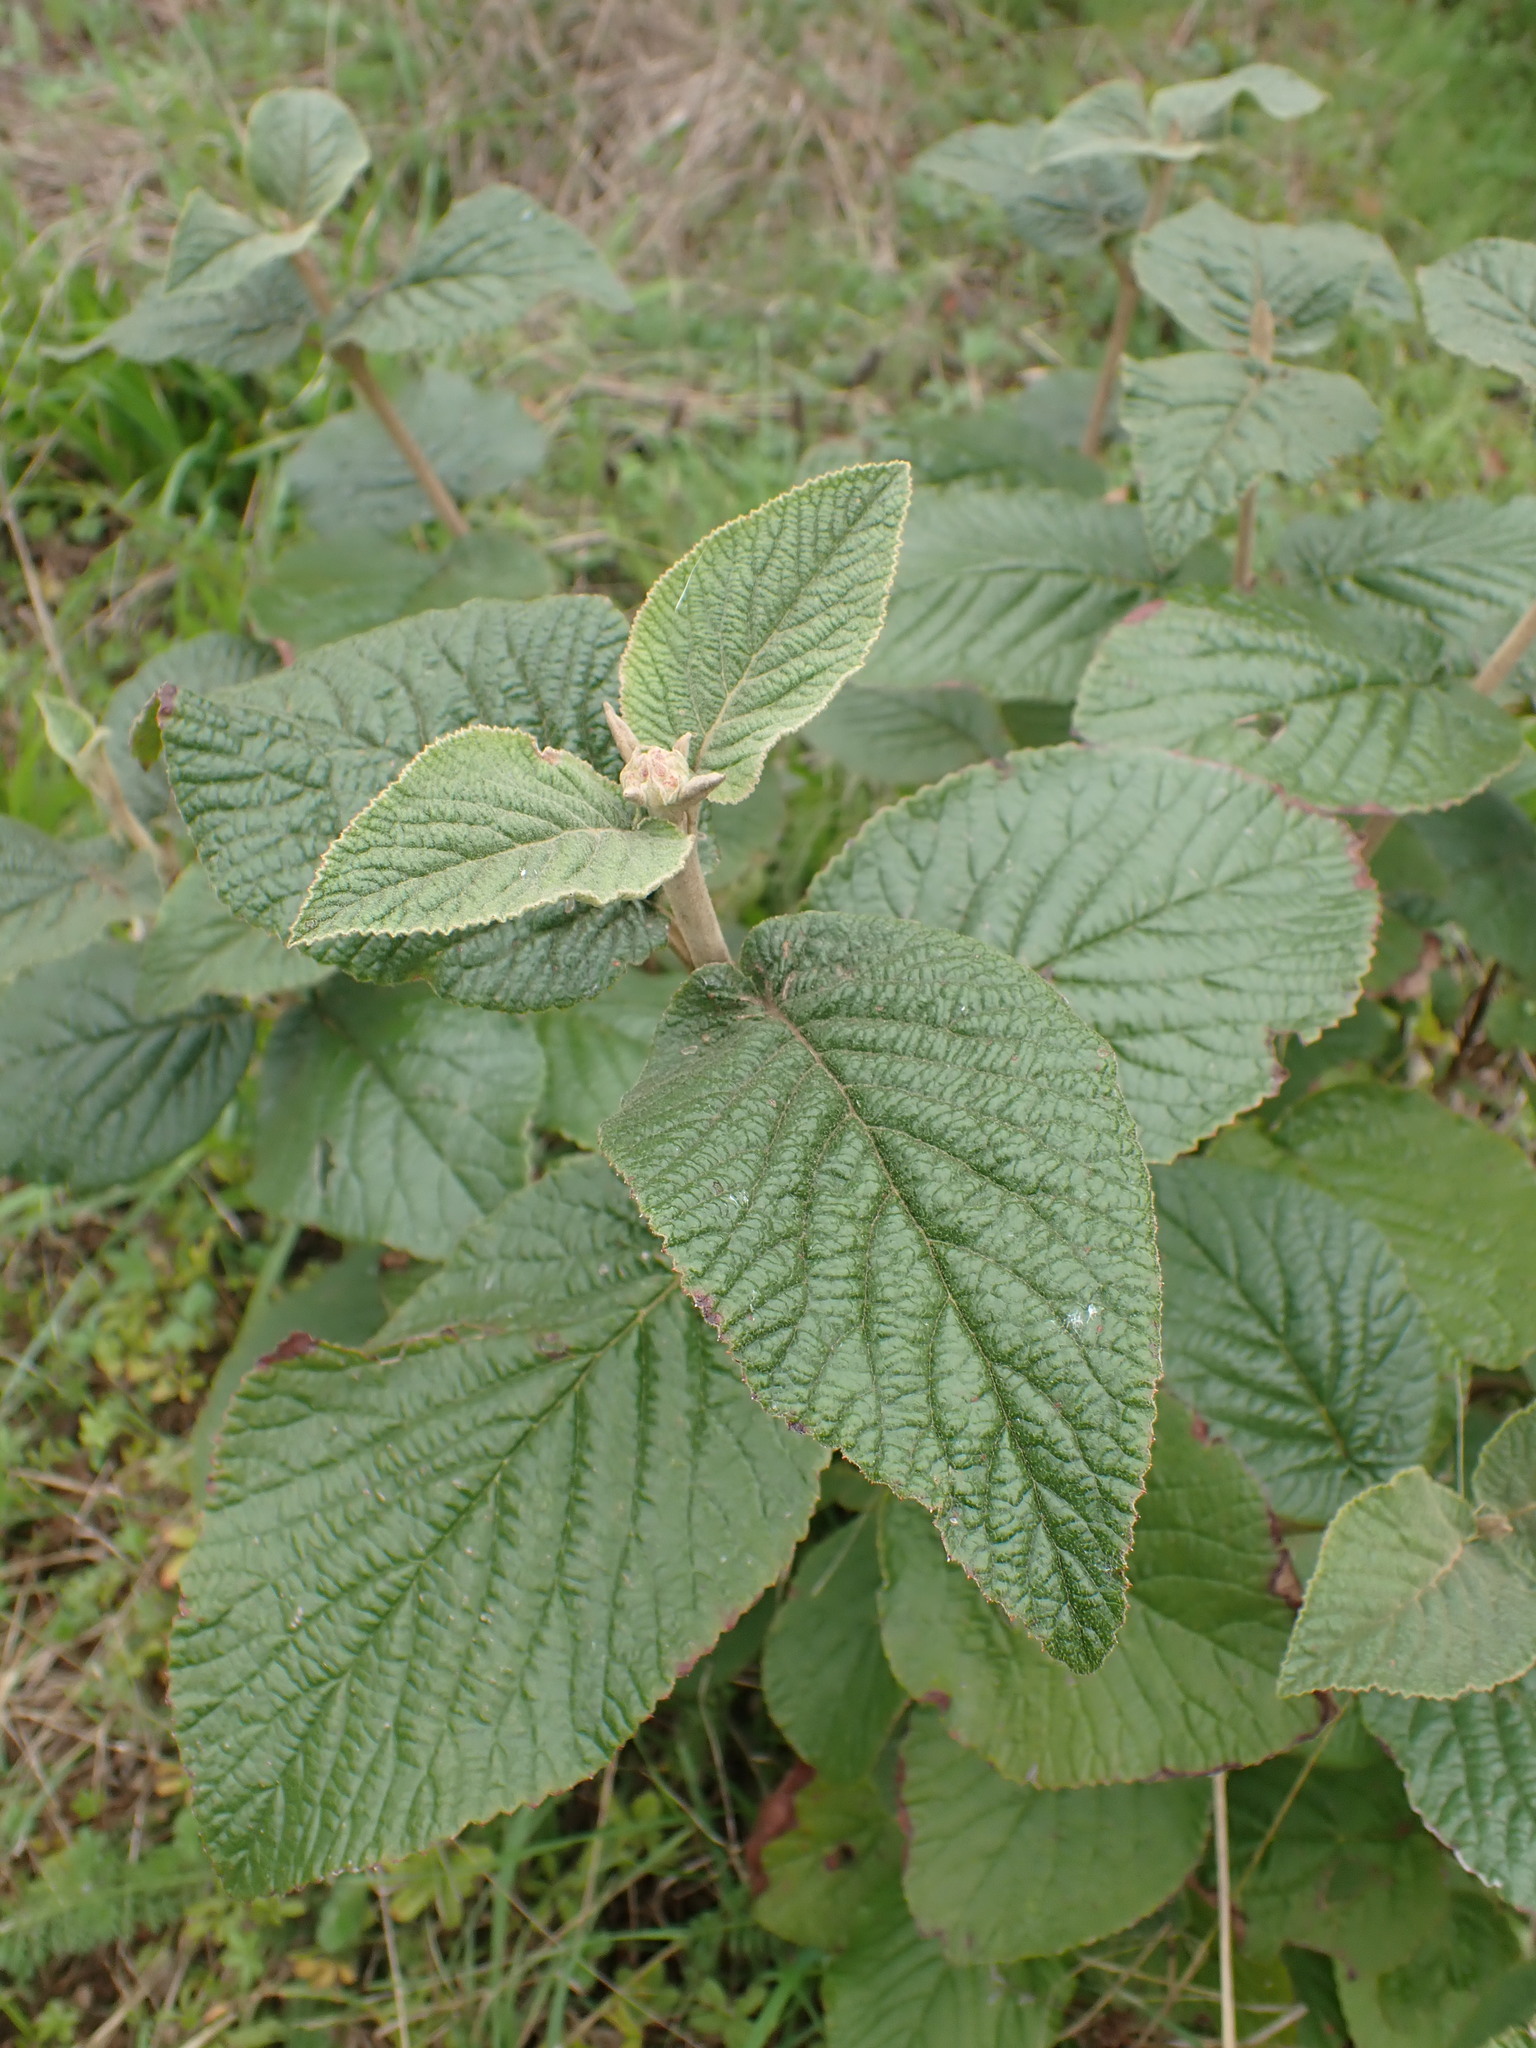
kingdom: Plantae
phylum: Tracheophyta
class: Magnoliopsida
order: Dipsacales
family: Viburnaceae
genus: Viburnum
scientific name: Viburnum lantana
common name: Wayfaring tree
